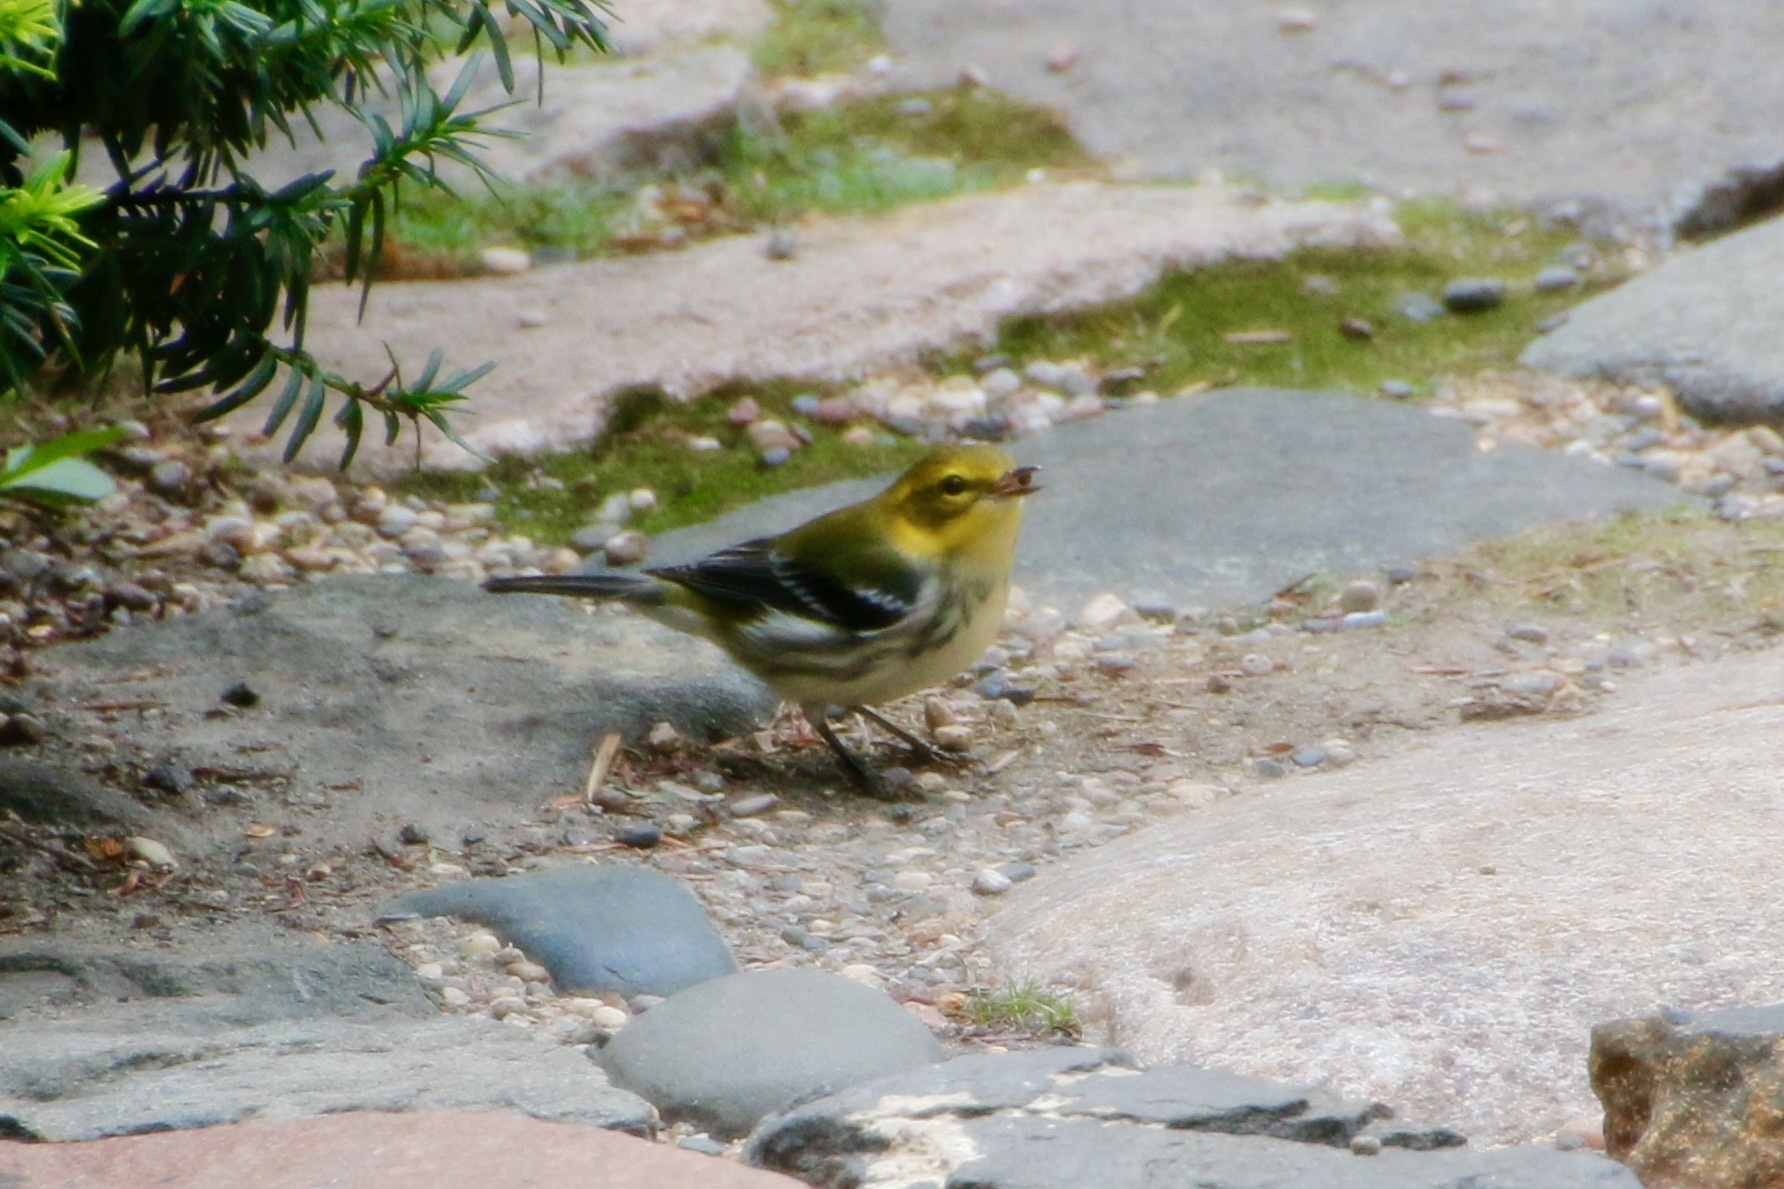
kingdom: Animalia
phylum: Chordata
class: Aves
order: Passeriformes
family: Parulidae
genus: Setophaga
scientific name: Setophaga virens
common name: Black-throated green warbler
